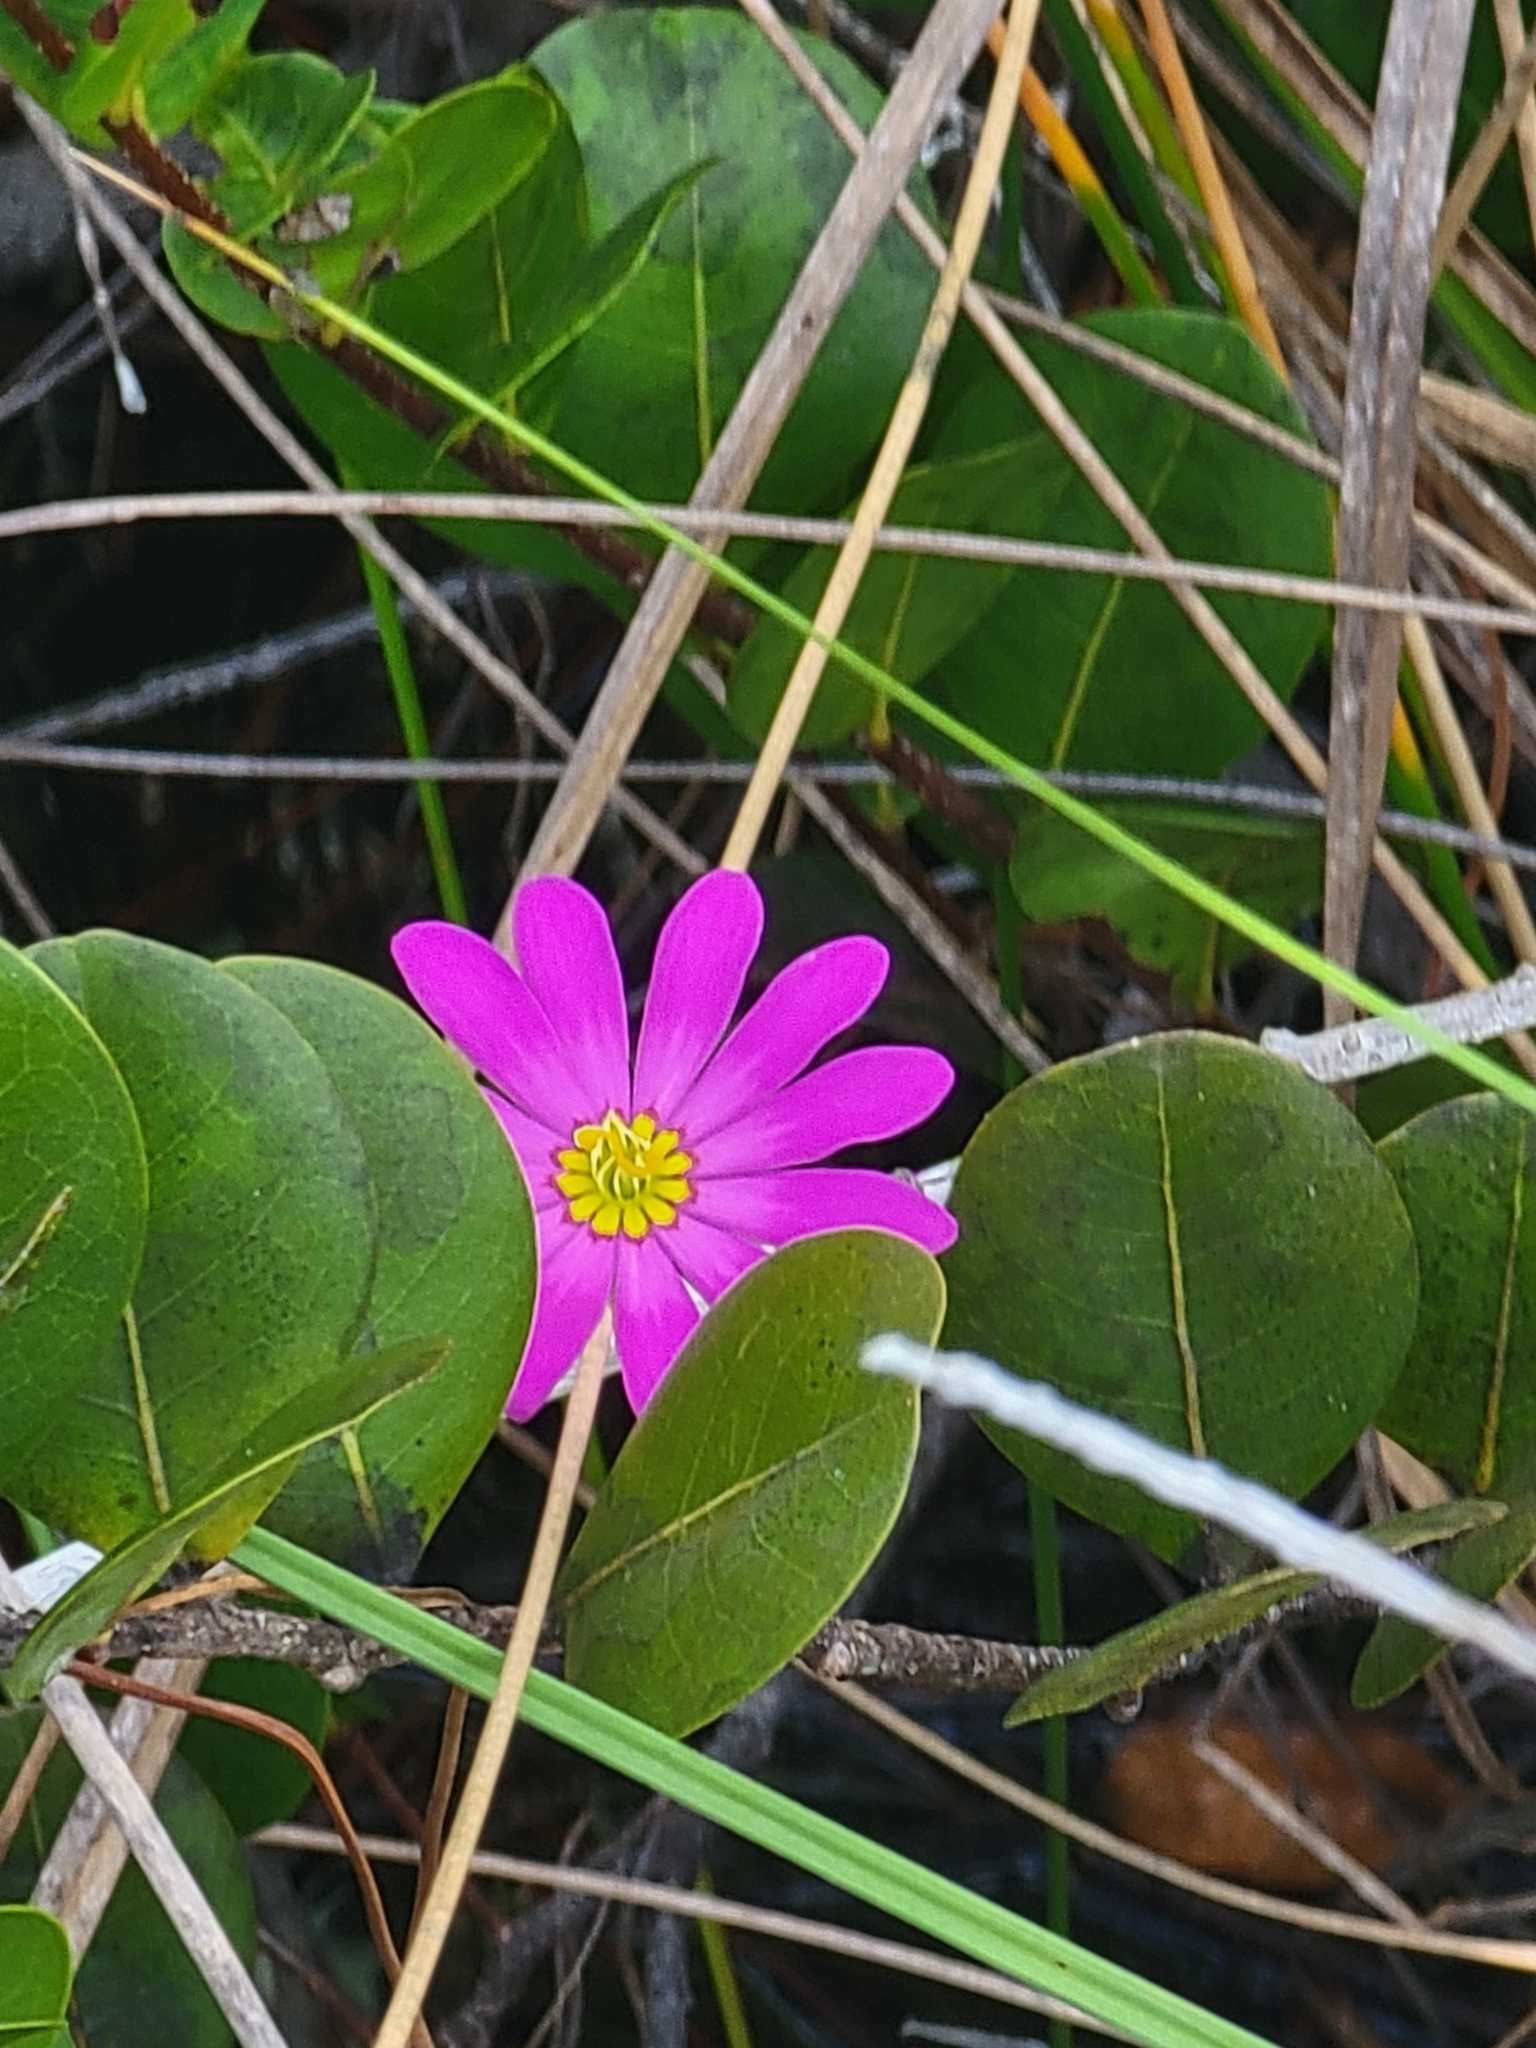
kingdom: Plantae
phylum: Tracheophyta
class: Magnoliopsida
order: Gentianales
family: Gentianaceae
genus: Sabatia
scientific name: Sabatia decandra
